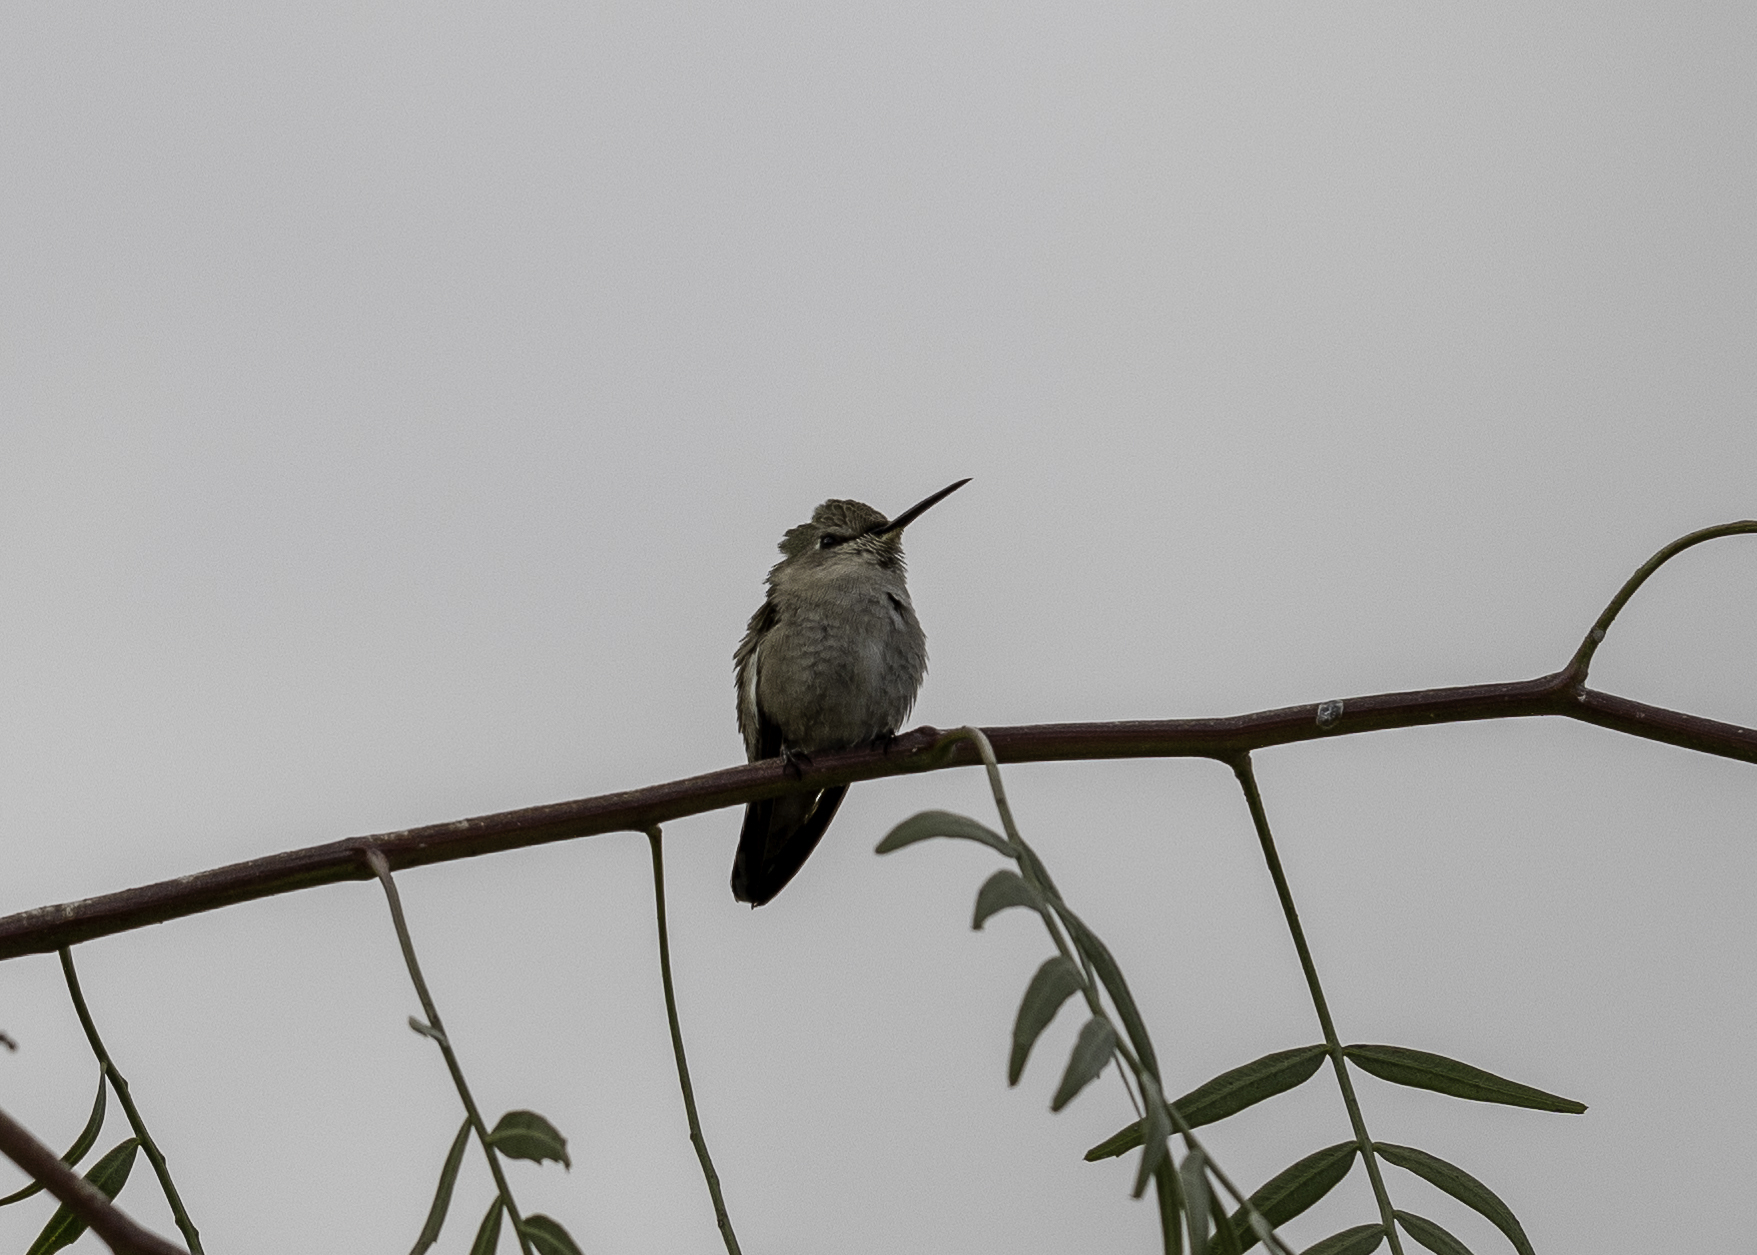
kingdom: Animalia
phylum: Chordata
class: Aves
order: Apodiformes
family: Trochilidae
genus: Calypte
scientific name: Calypte costae
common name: Costa's hummingbird
